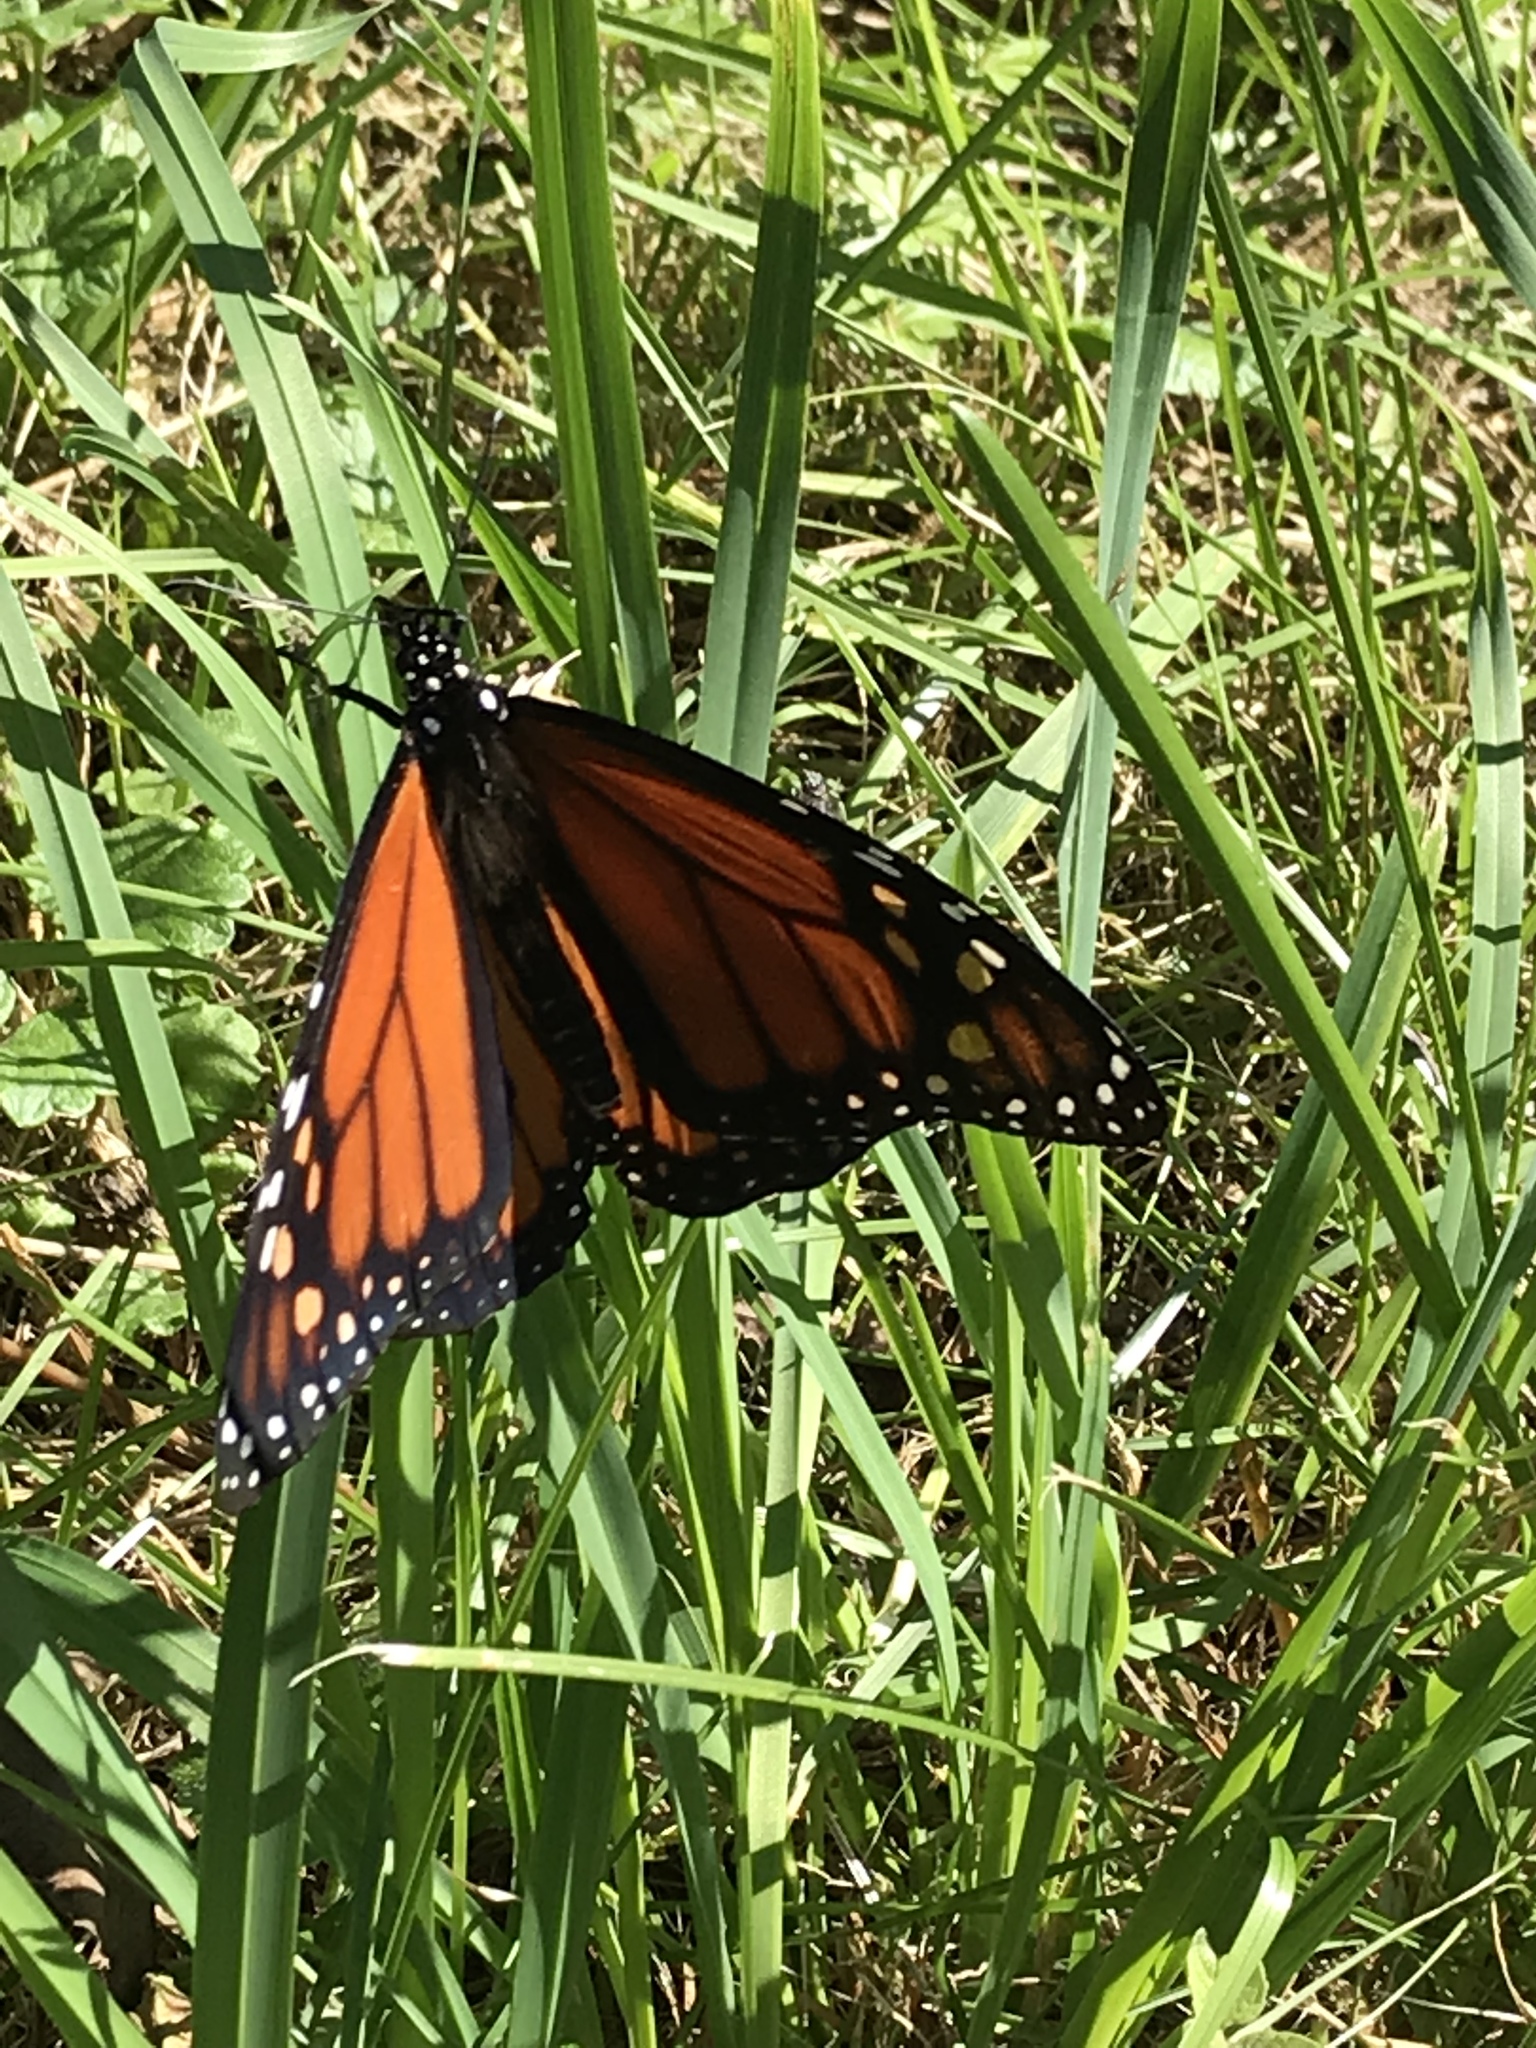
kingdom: Animalia
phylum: Arthropoda
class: Insecta
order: Lepidoptera
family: Nymphalidae
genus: Danaus
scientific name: Danaus plexippus
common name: Monarch
